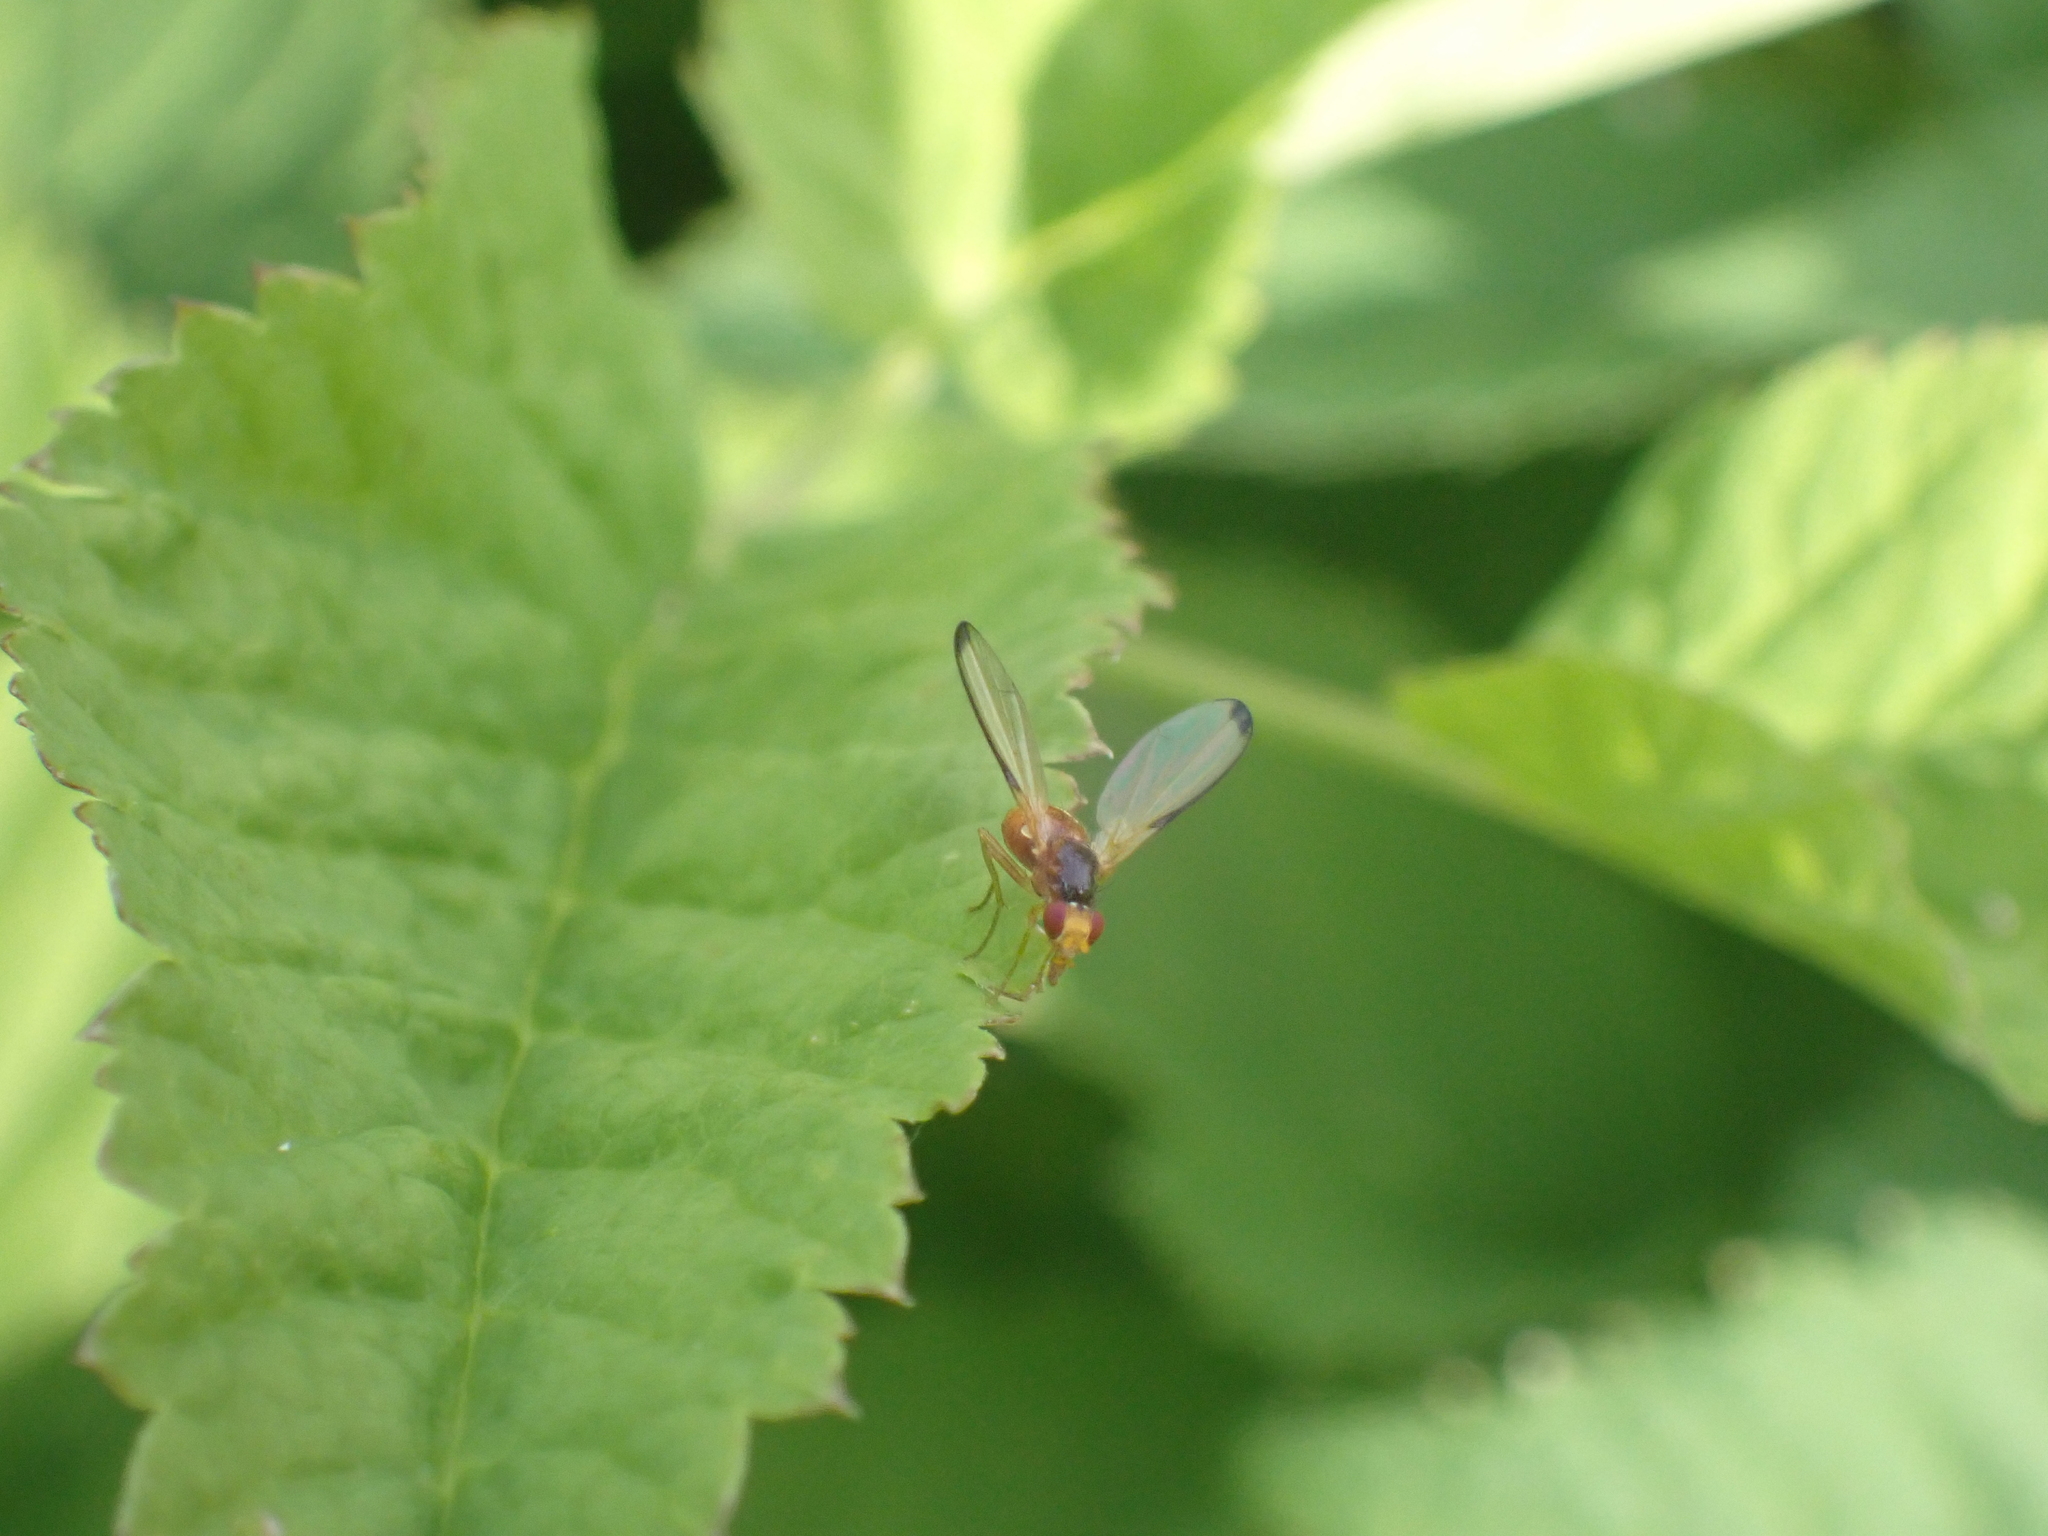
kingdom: Animalia
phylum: Arthropoda
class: Insecta
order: Diptera
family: Pallopteridae
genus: Palloptera
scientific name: Palloptera saltuum
